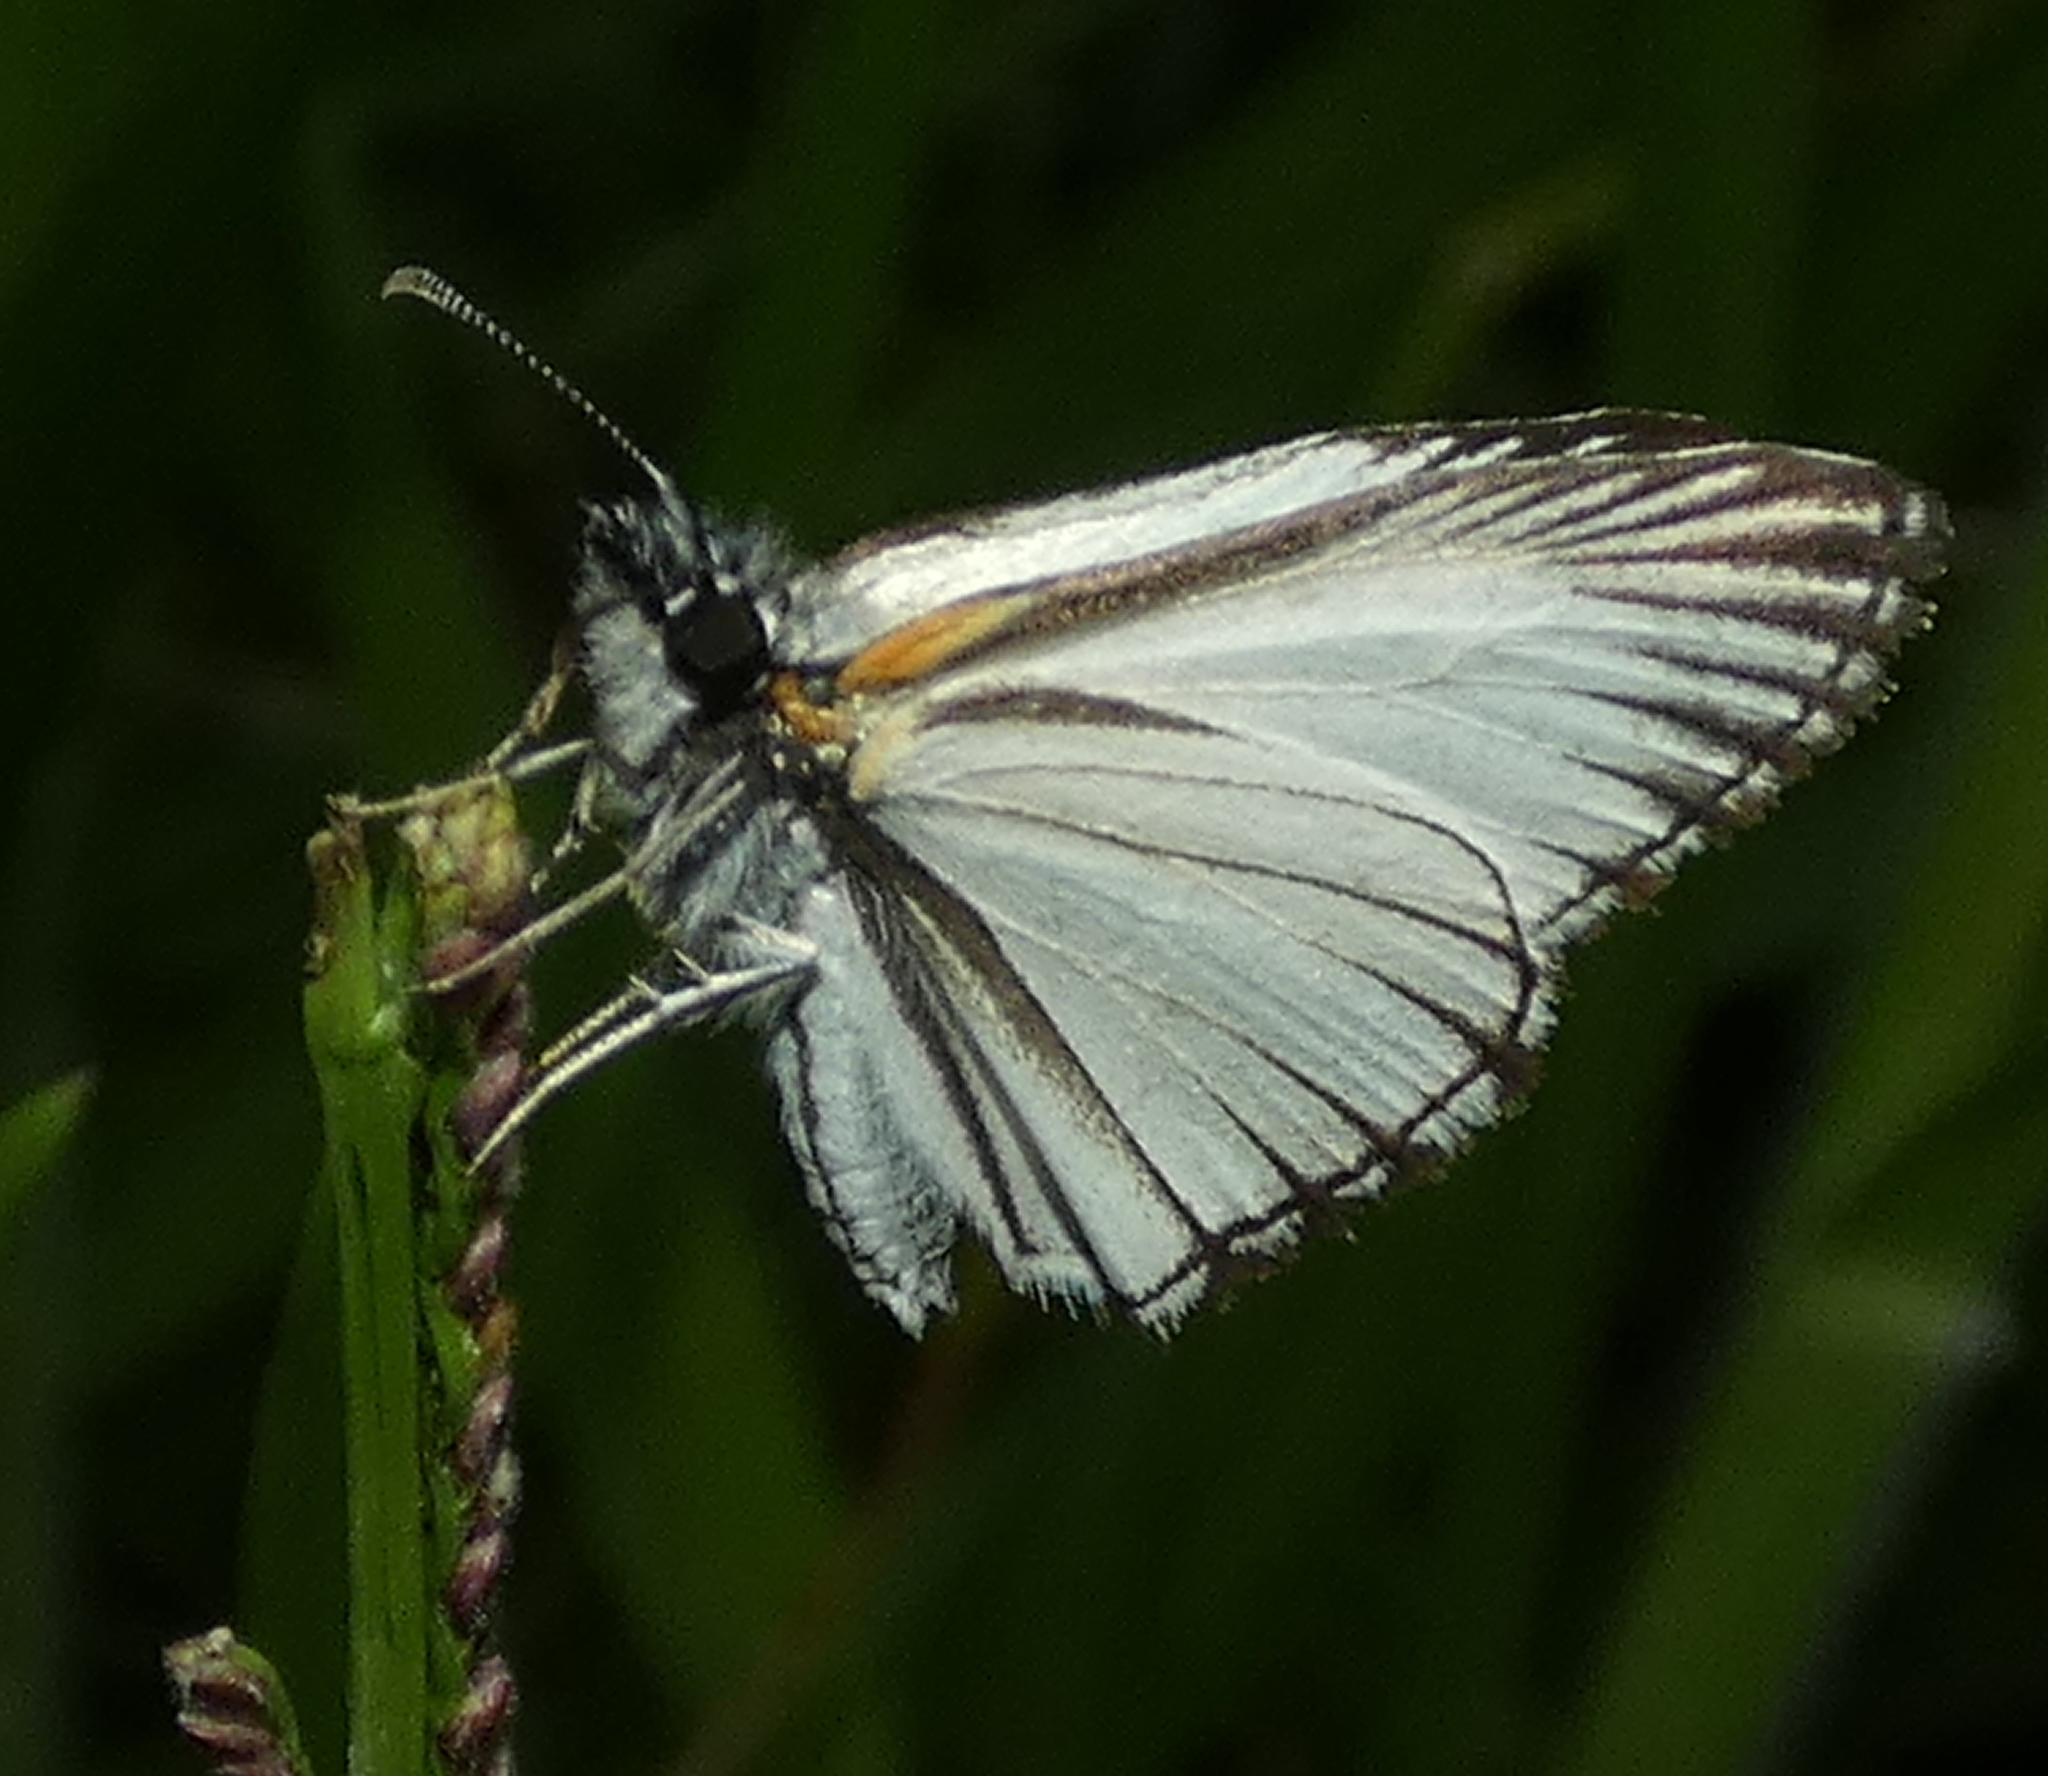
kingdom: Animalia
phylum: Arthropoda
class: Insecta
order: Lepidoptera
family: Hesperiidae
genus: Heliopetes
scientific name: Heliopetes arsalte
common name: Veined white-skipper
